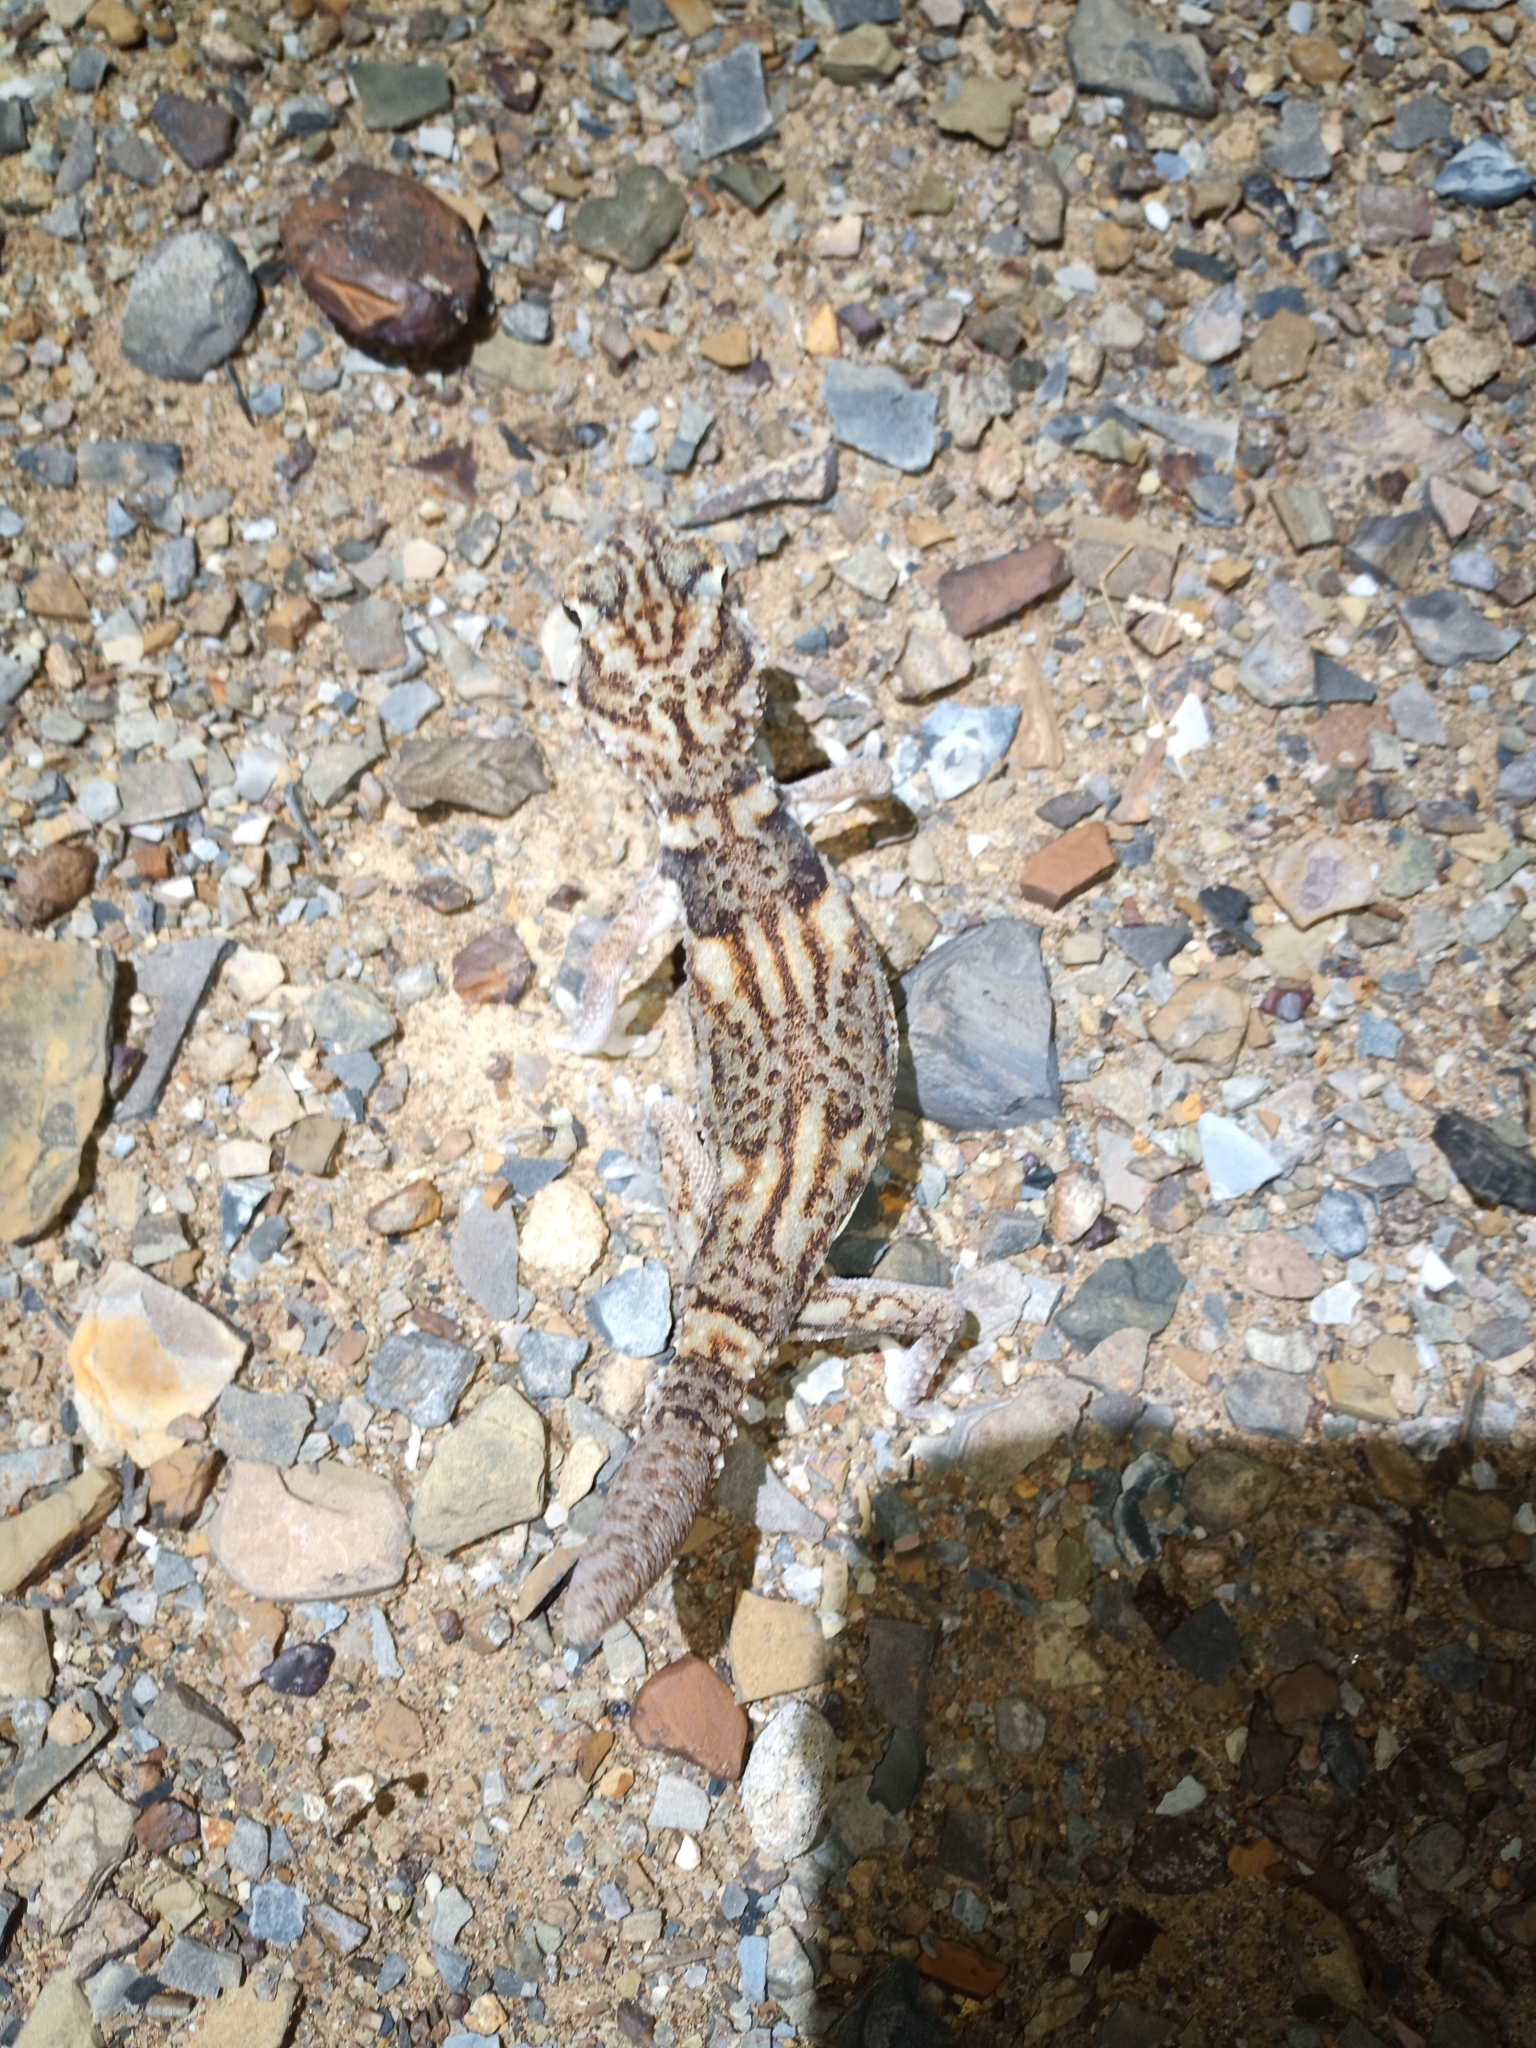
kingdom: Animalia
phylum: Chordata
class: Squamata
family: Gekkonidae
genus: Chondrodactylus
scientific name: Chondrodactylus angulifer
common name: Common giant ground gecko
